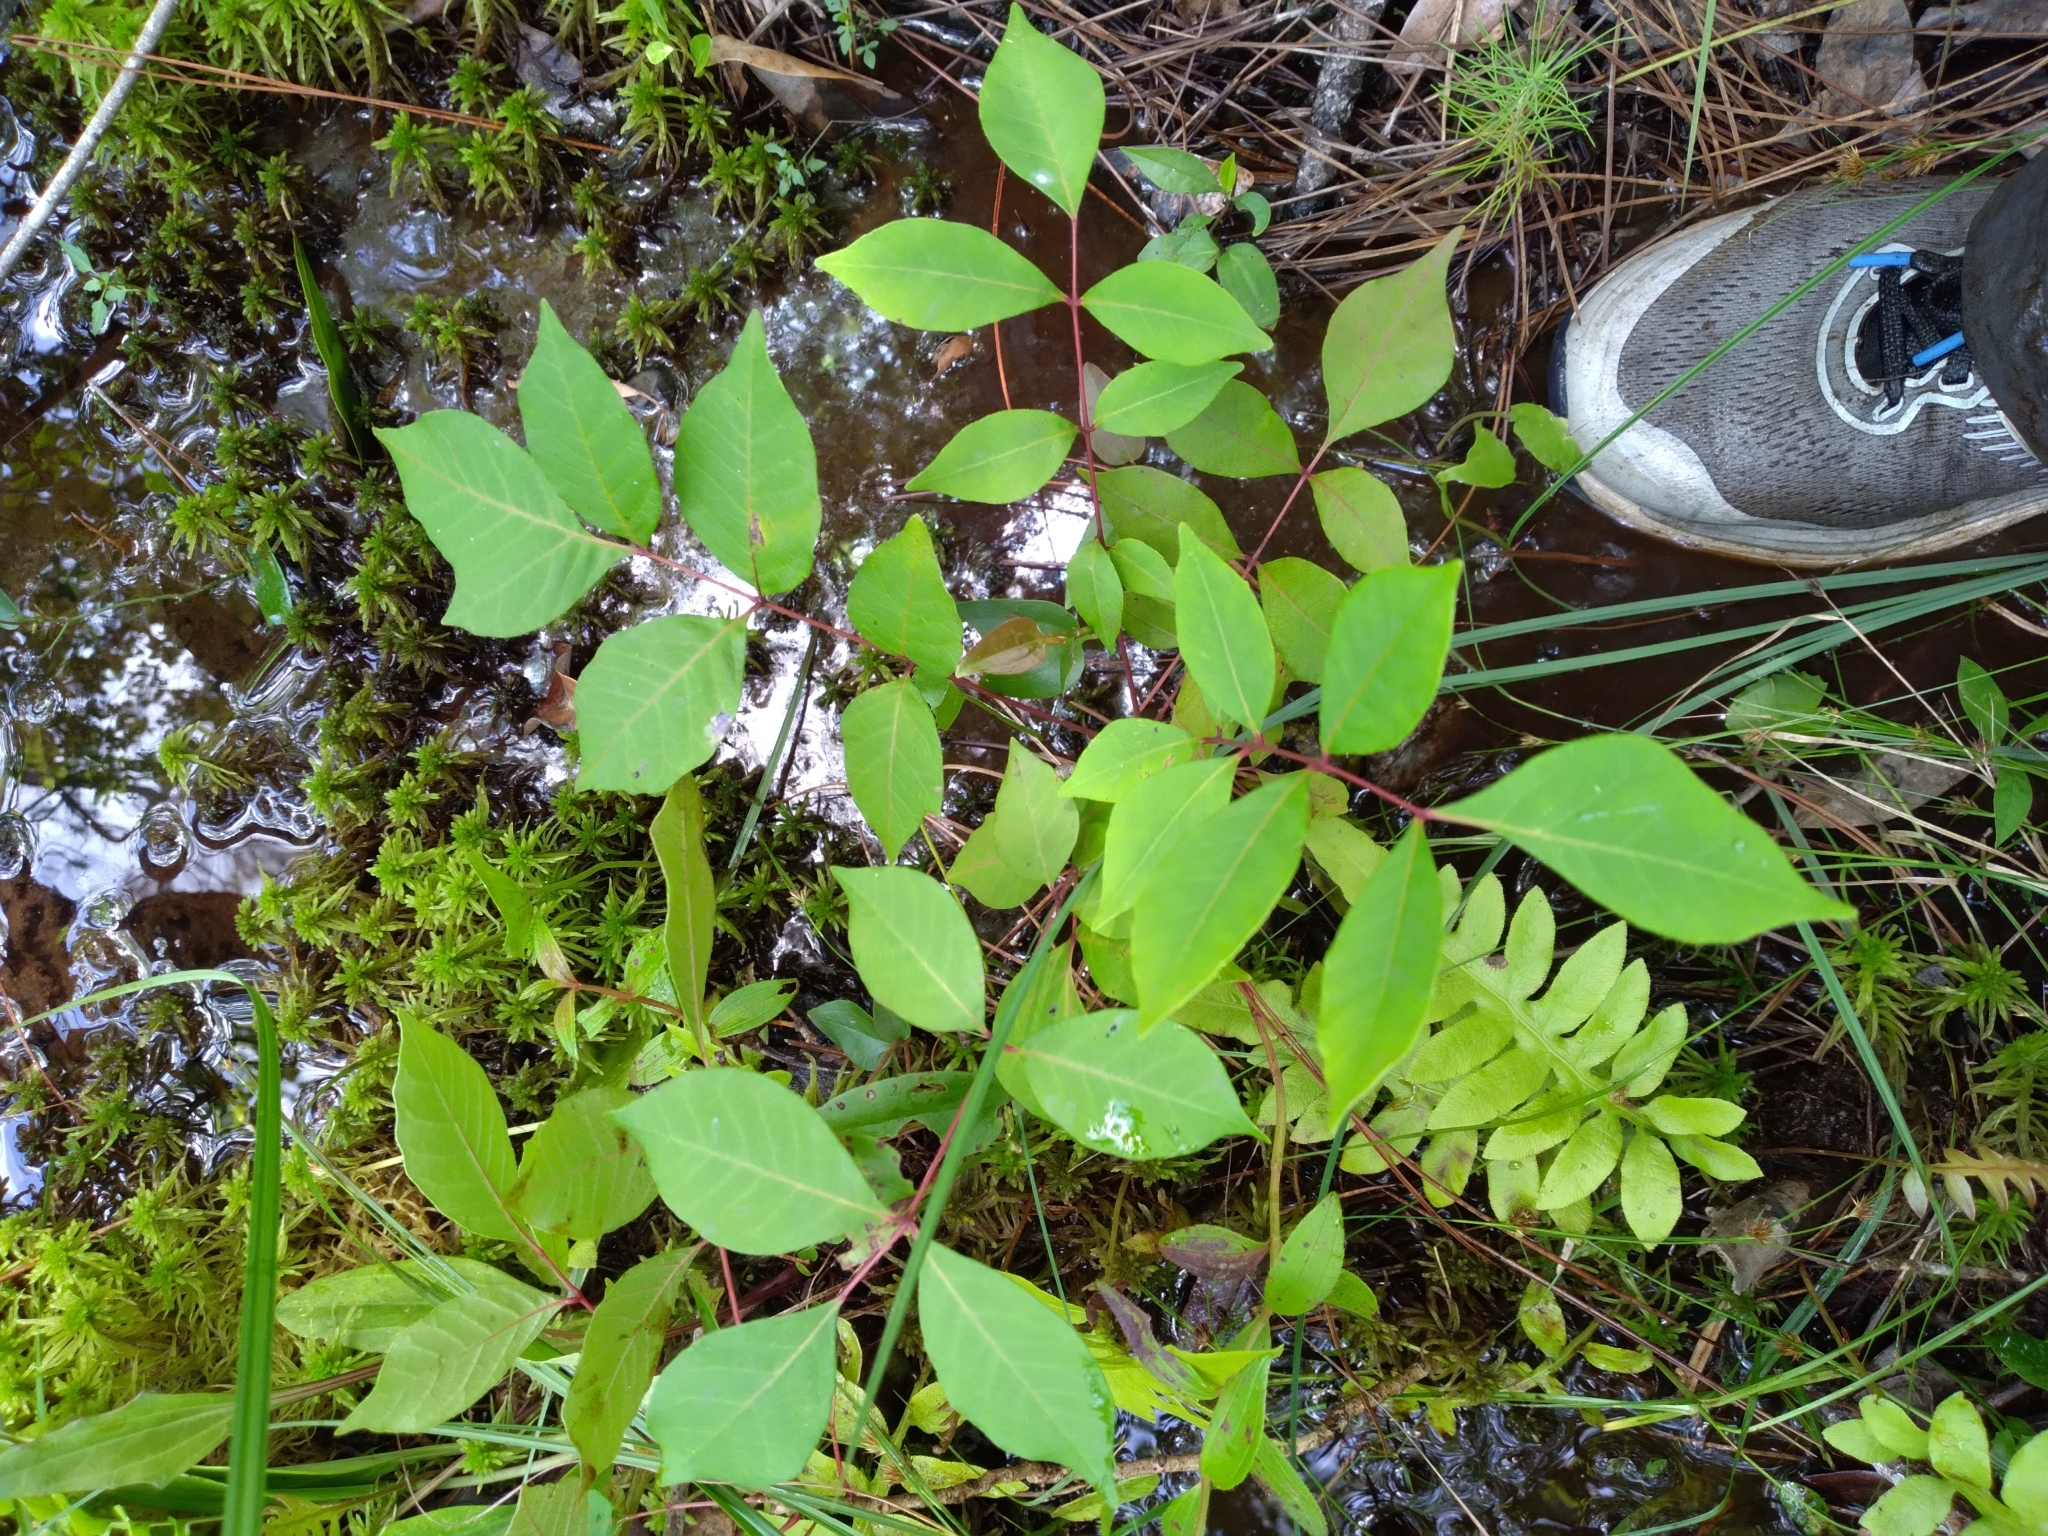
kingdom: Plantae
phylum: Tracheophyta
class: Magnoliopsida
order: Sapindales
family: Anacardiaceae
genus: Toxicodendron
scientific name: Toxicodendron vernix
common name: Poison sumac
